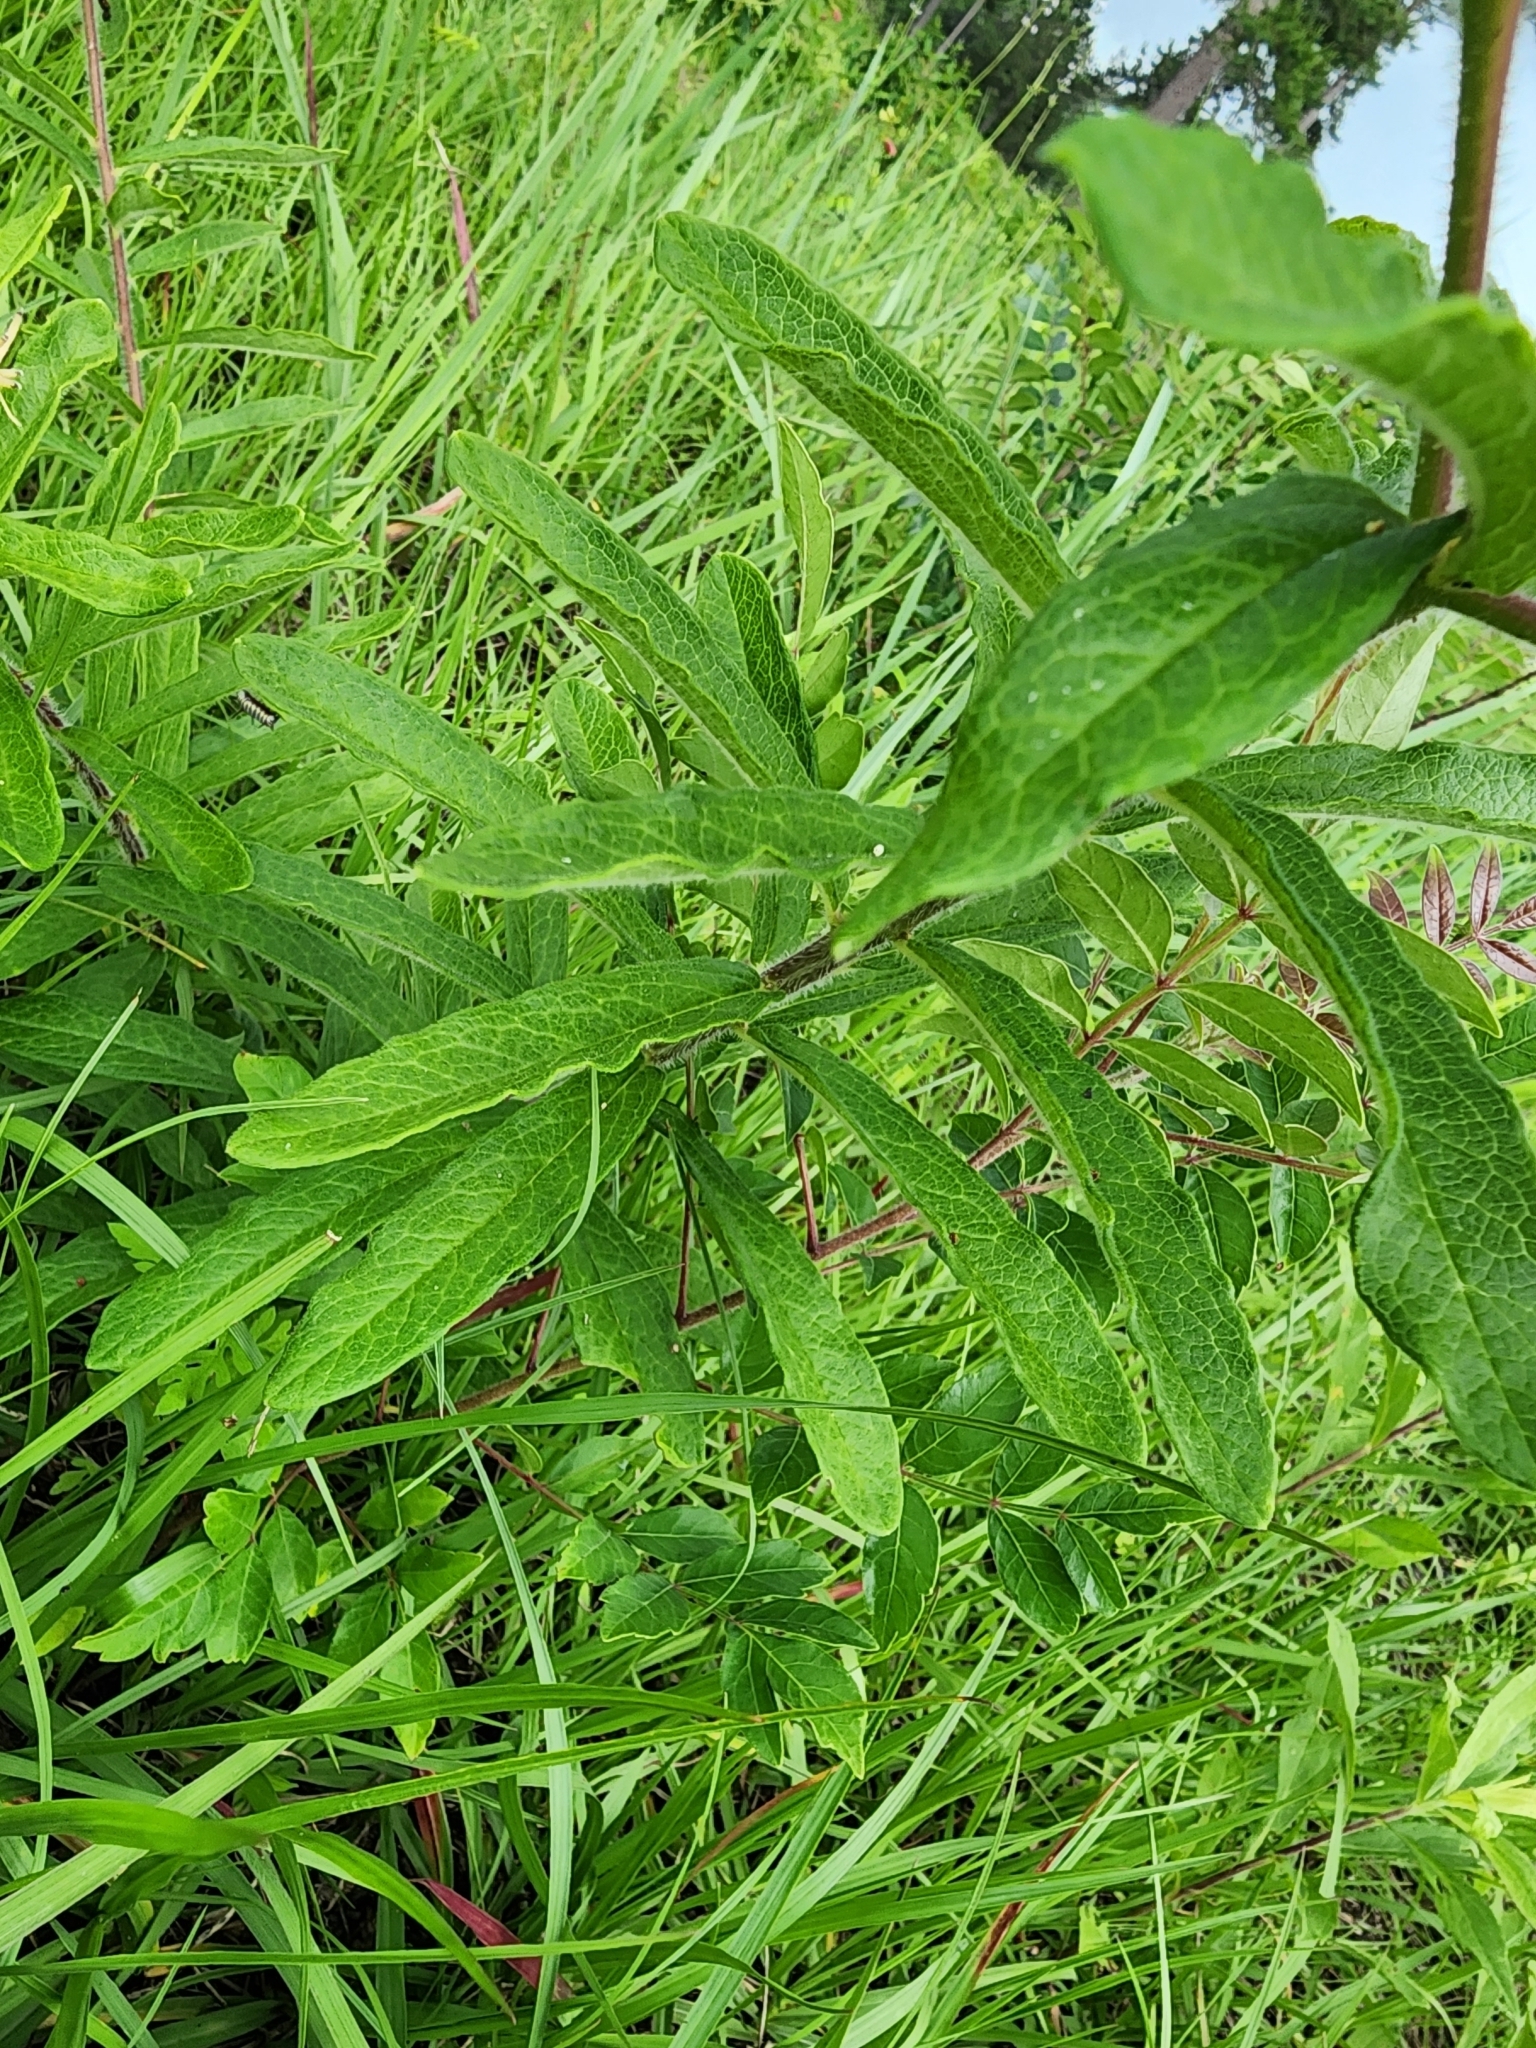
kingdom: Plantae
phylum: Tracheophyta
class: Magnoliopsida
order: Gentianales
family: Apocynaceae
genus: Asclepias
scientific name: Asclepias tuberosa
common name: Butterfly milkweed
